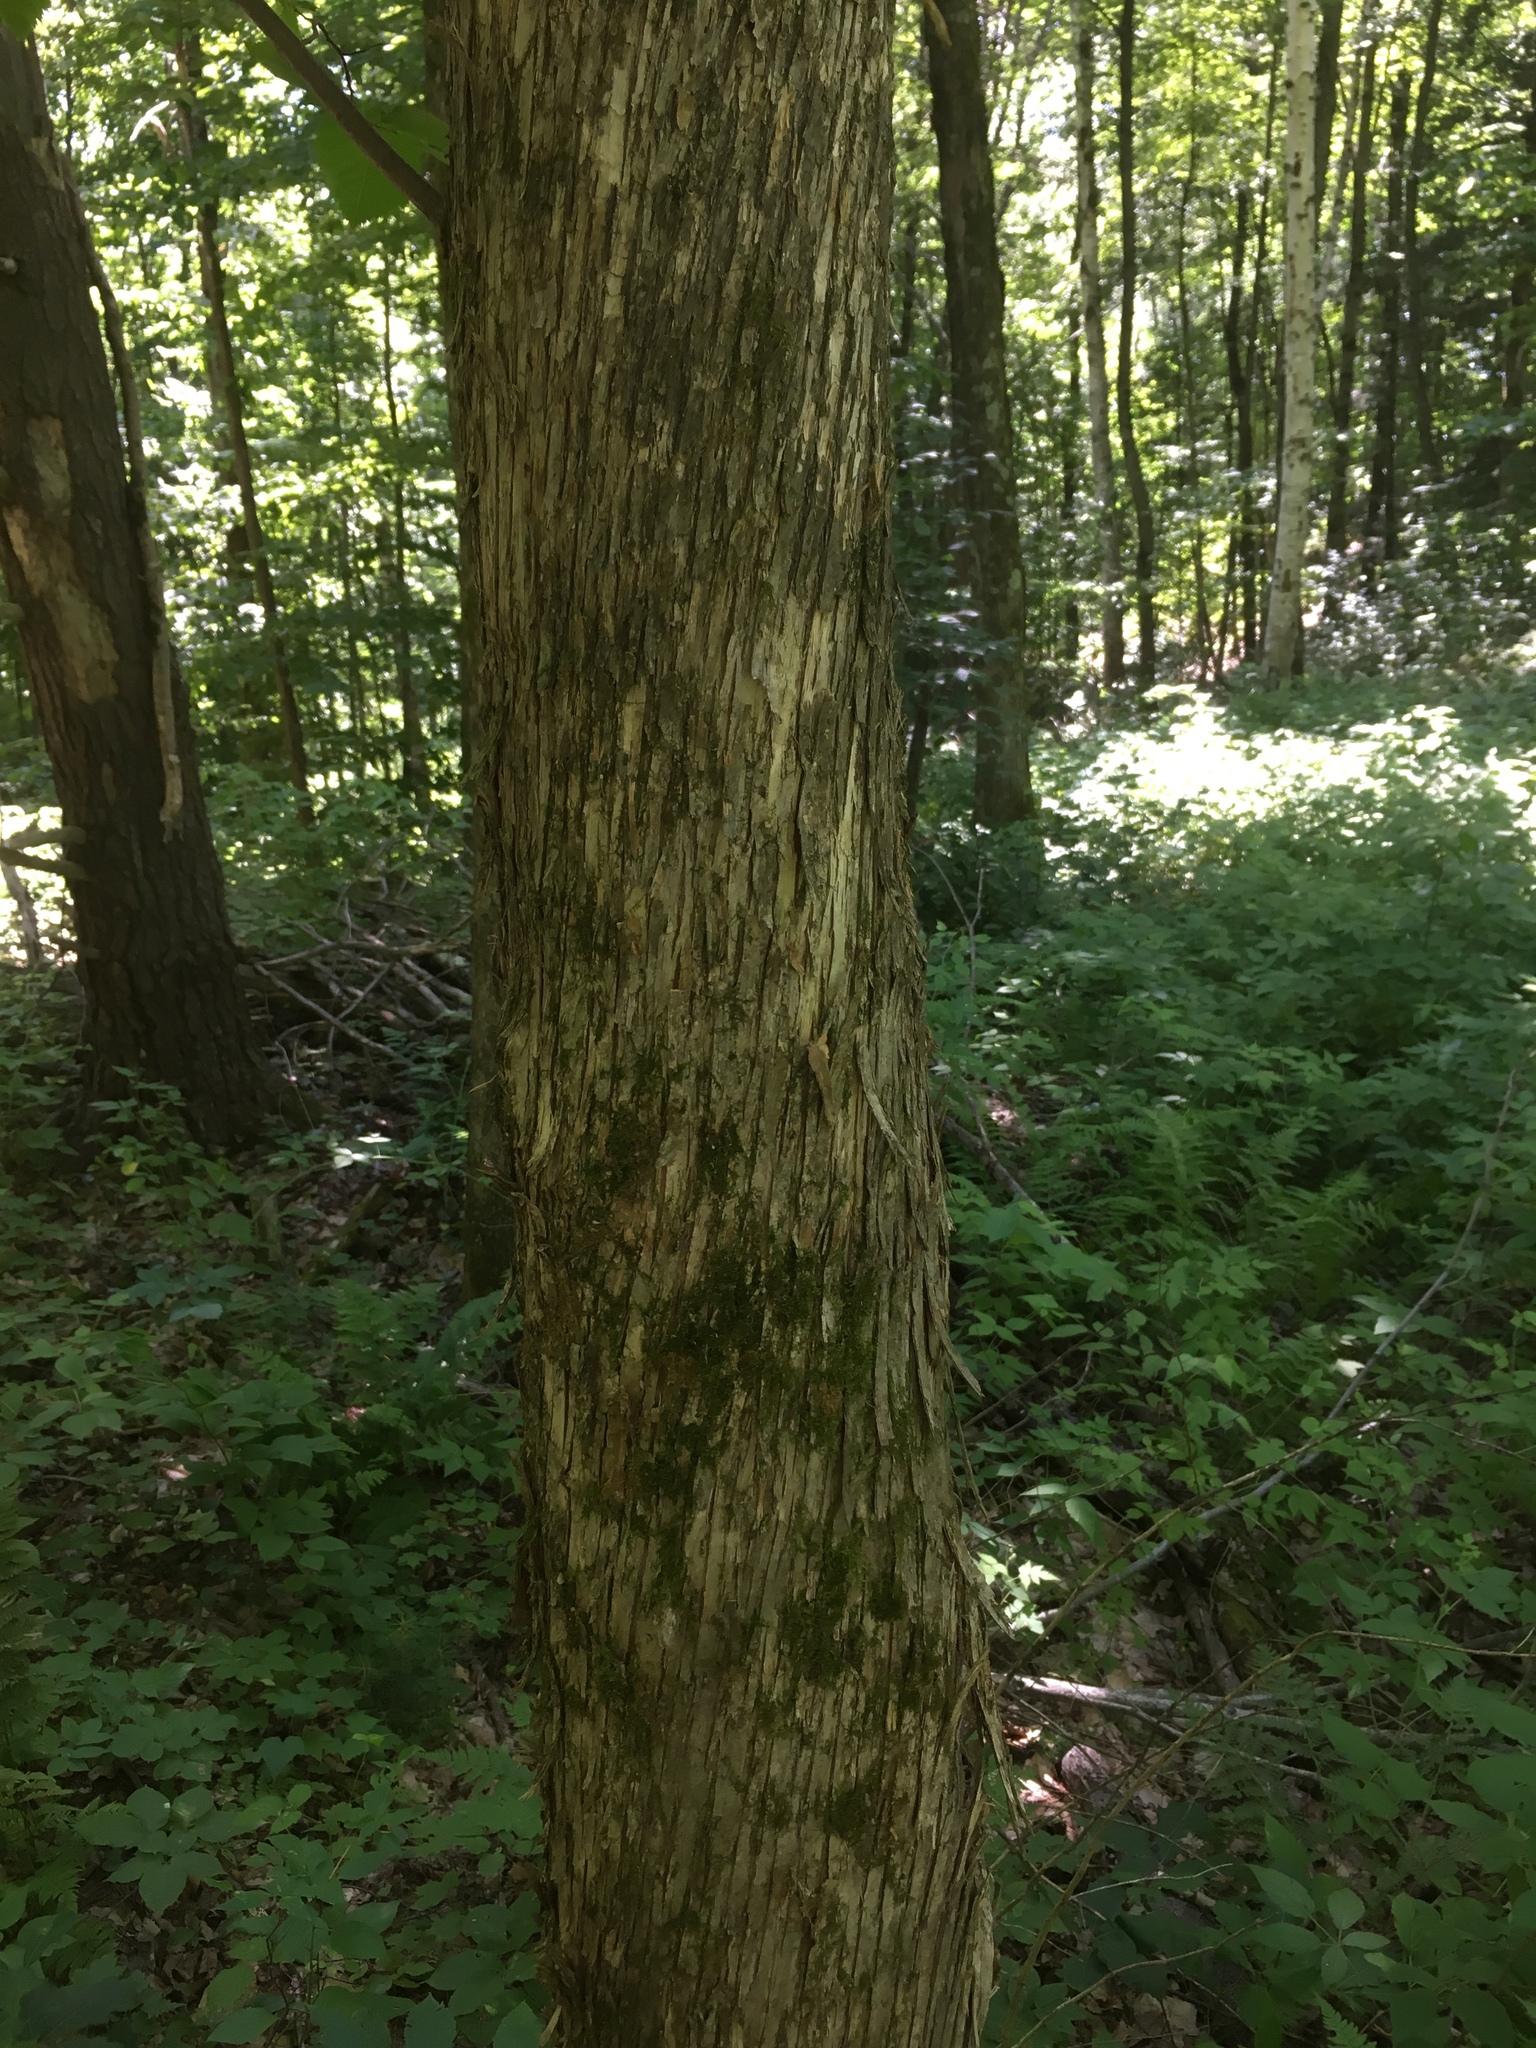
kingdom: Plantae
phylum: Tracheophyta
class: Magnoliopsida
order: Fagales
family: Betulaceae
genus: Ostrya
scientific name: Ostrya virginiana
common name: Ironwood
